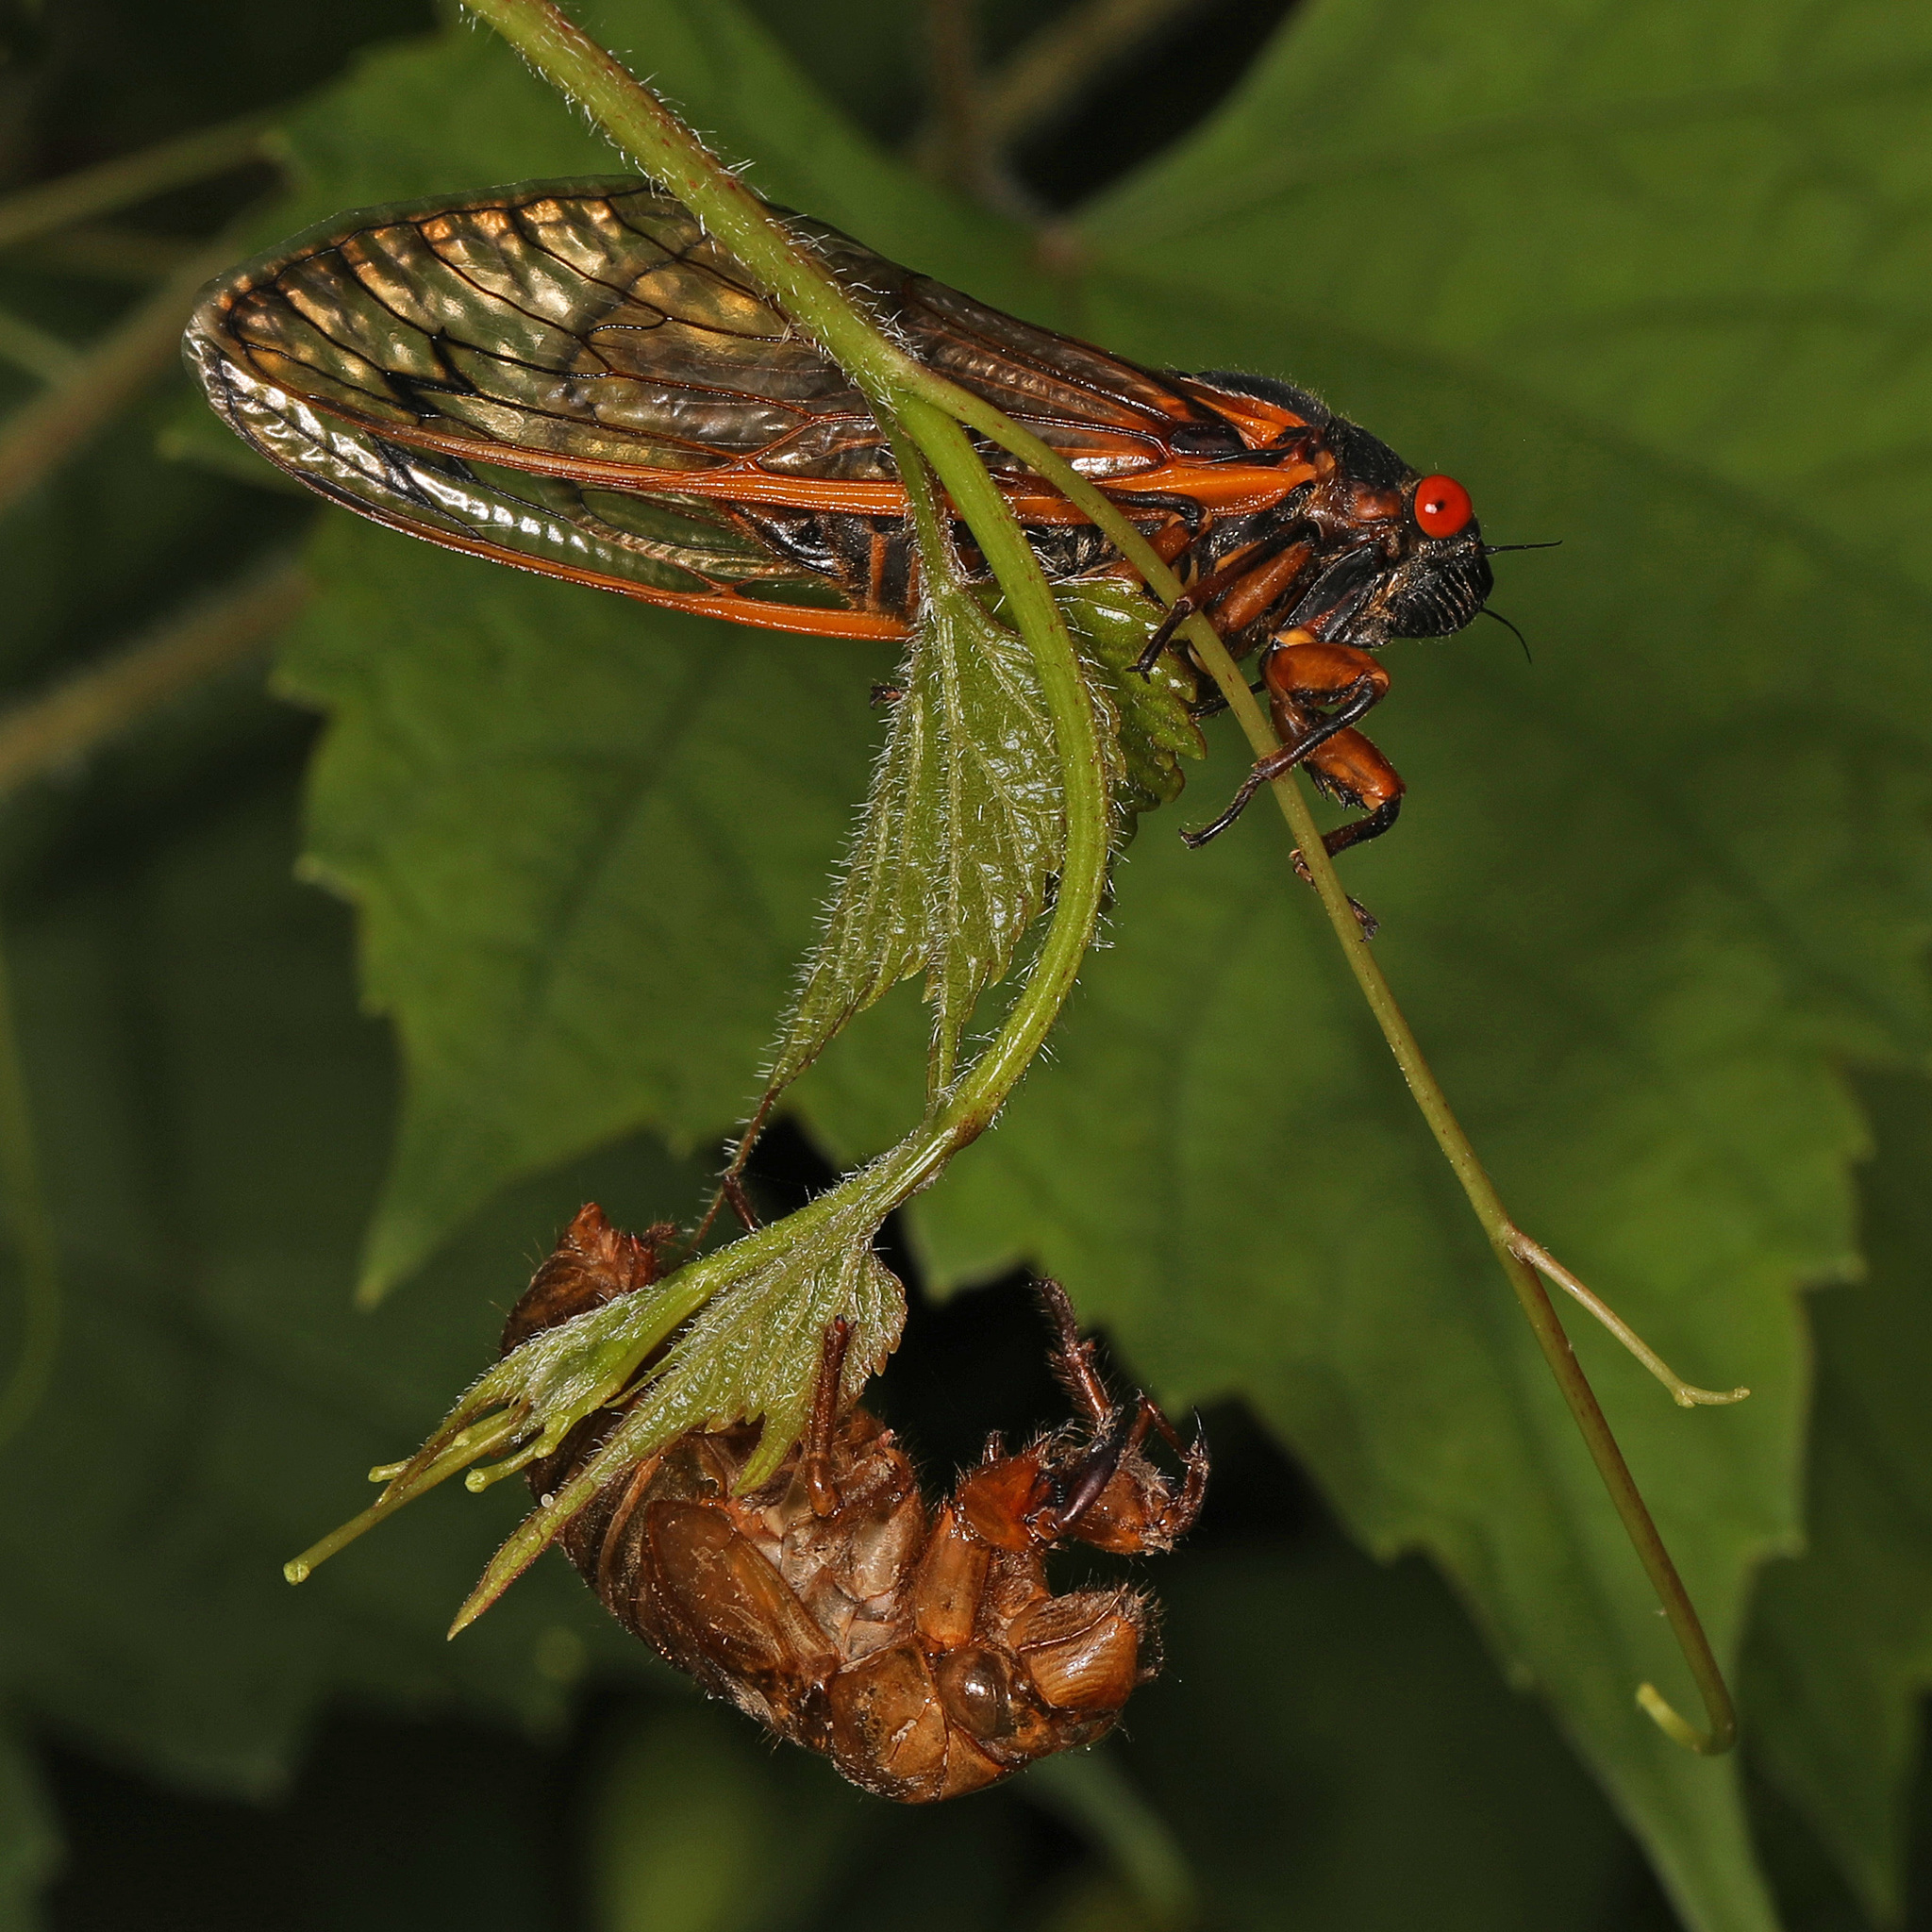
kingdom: Animalia
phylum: Arthropoda
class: Insecta
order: Hemiptera
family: Cicadidae
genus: Magicicada
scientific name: Magicicada septendecim
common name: Periodical cicada
